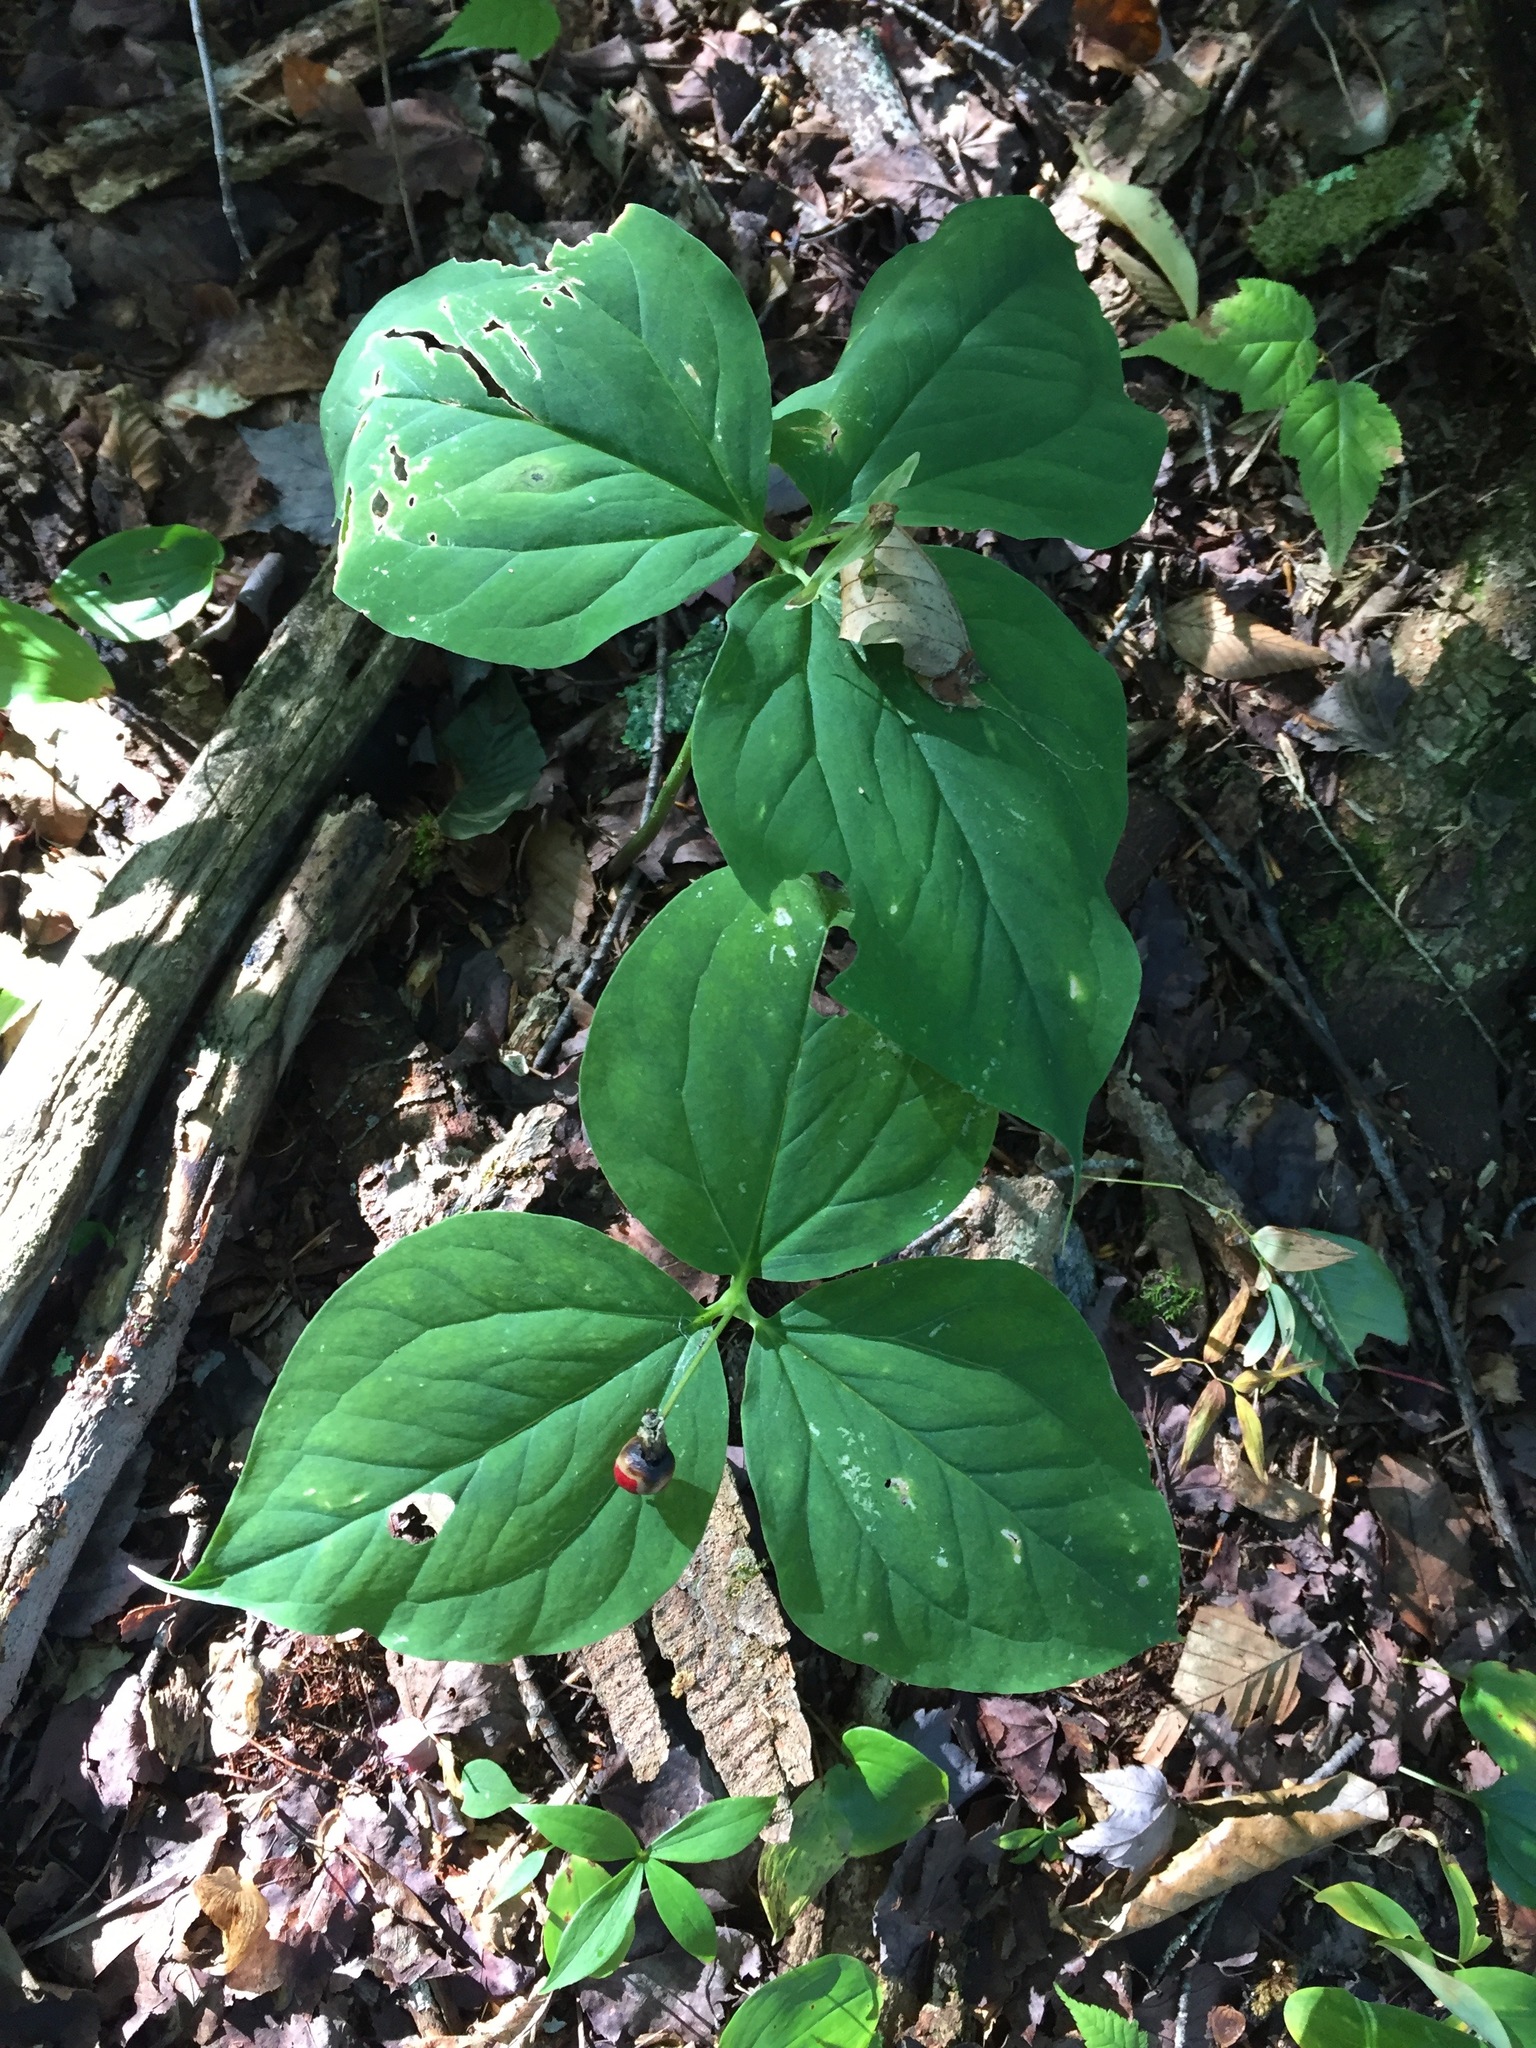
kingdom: Plantae
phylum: Tracheophyta
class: Liliopsida
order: Liliales
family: Melanthiaceae
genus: Trillium
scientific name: Trillium undulatum
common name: Paint trillium
